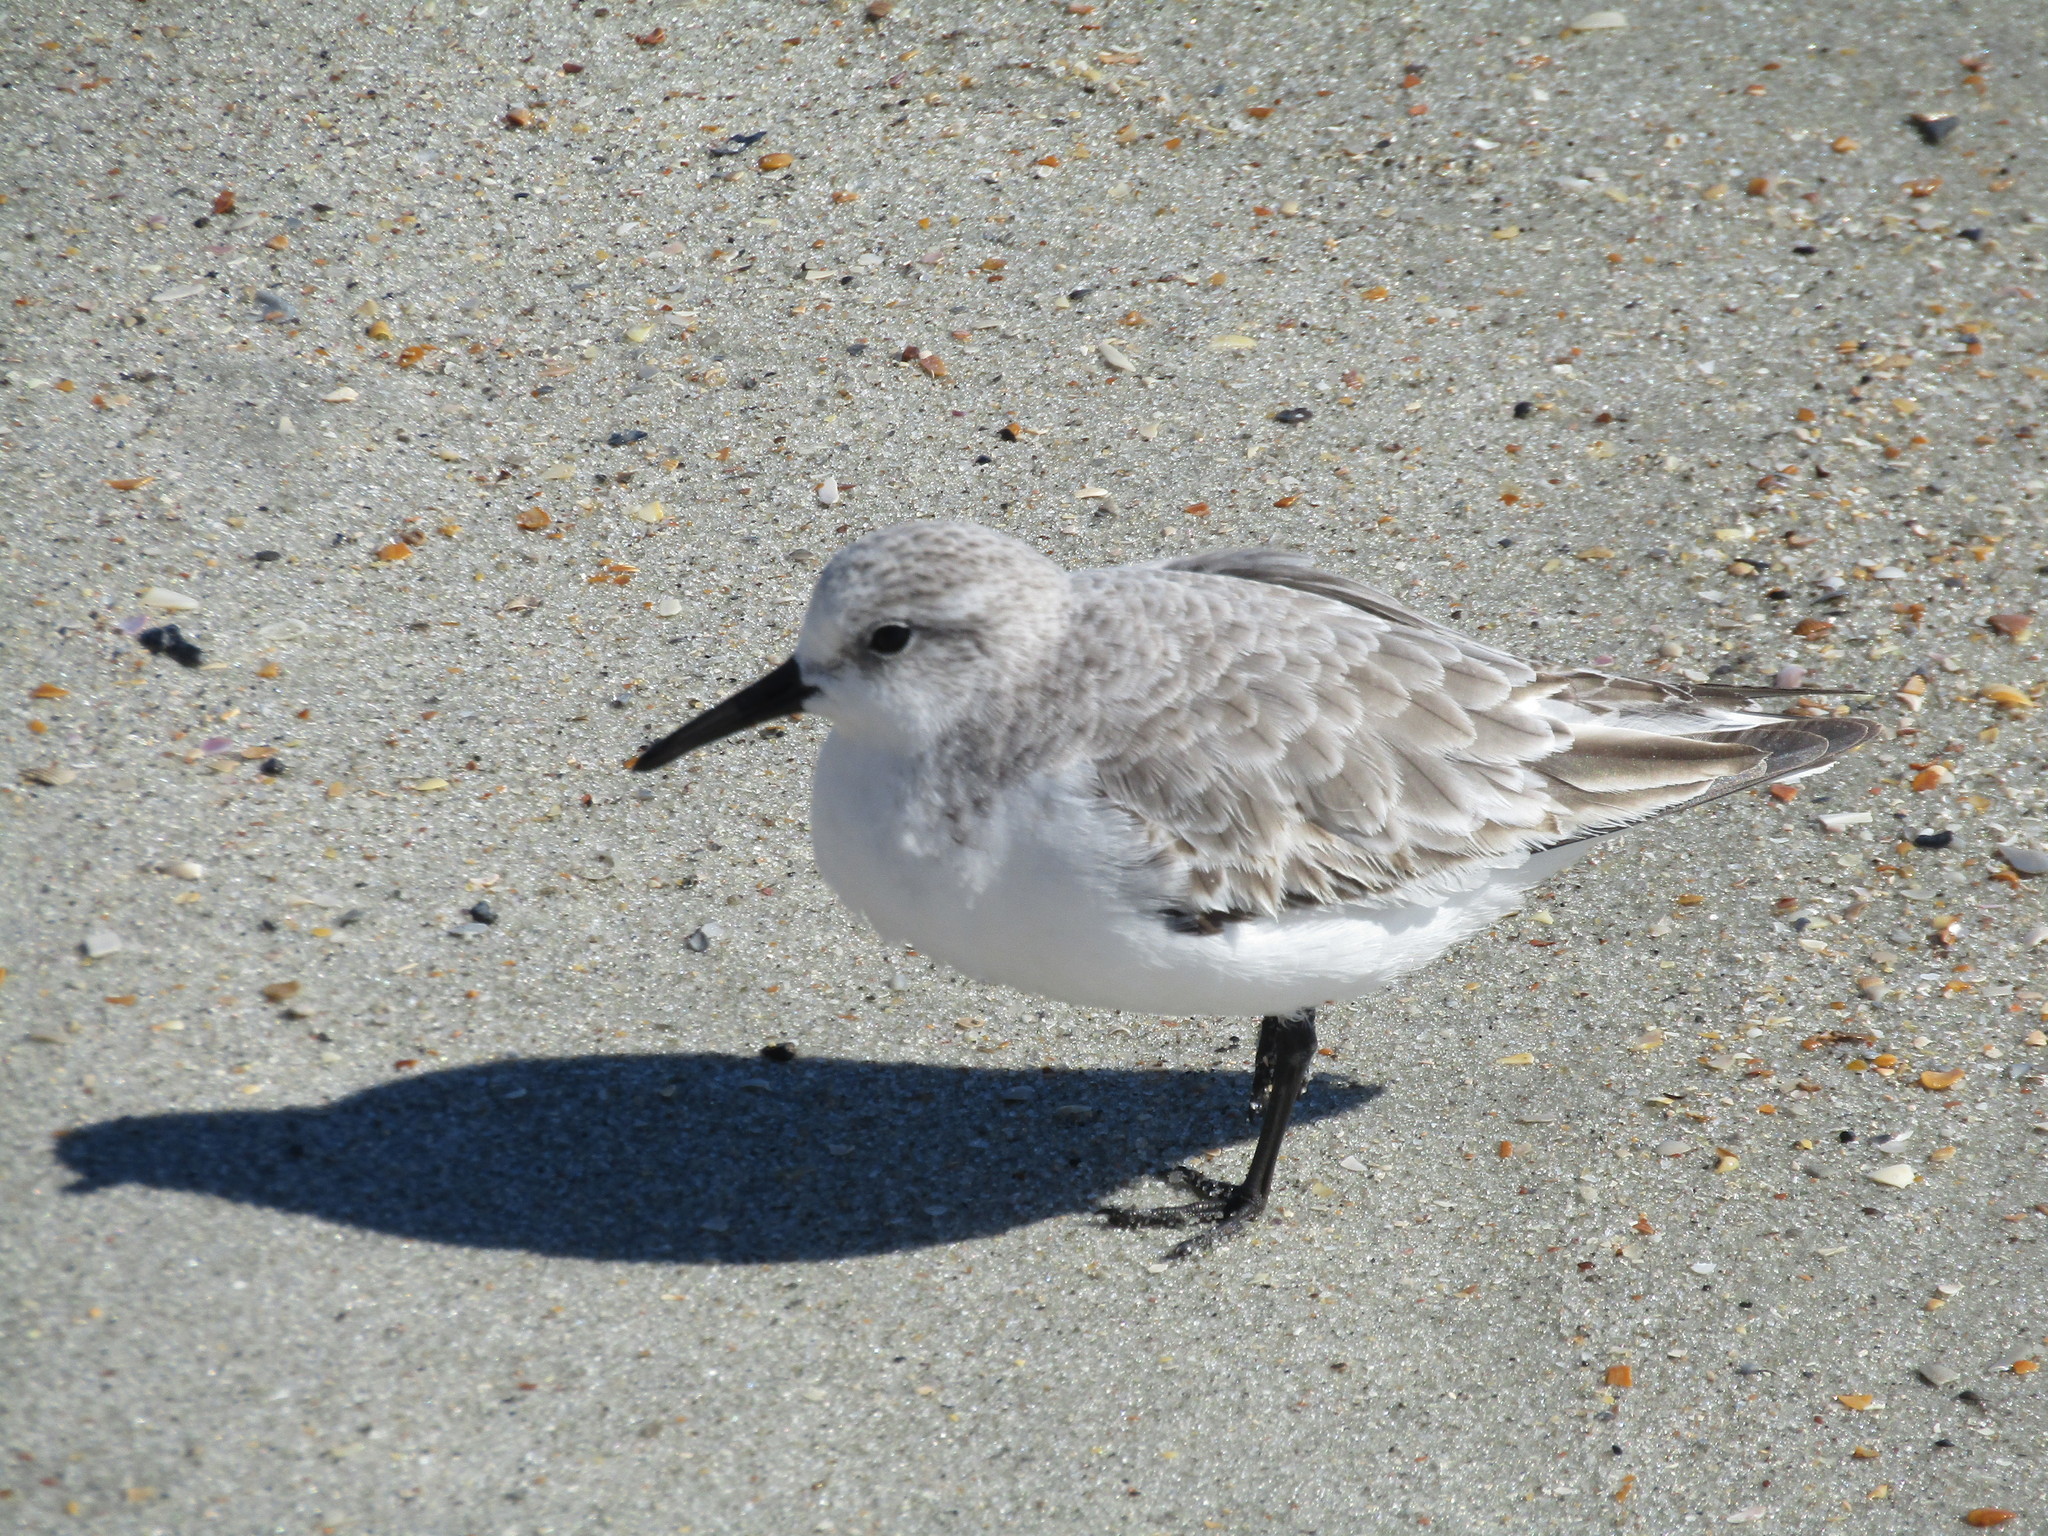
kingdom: Animalia
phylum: Chordata
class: Aves
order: Charadriiformes
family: Scolopacidae
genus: Calidris
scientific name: Calidris alba
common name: Sanderling
